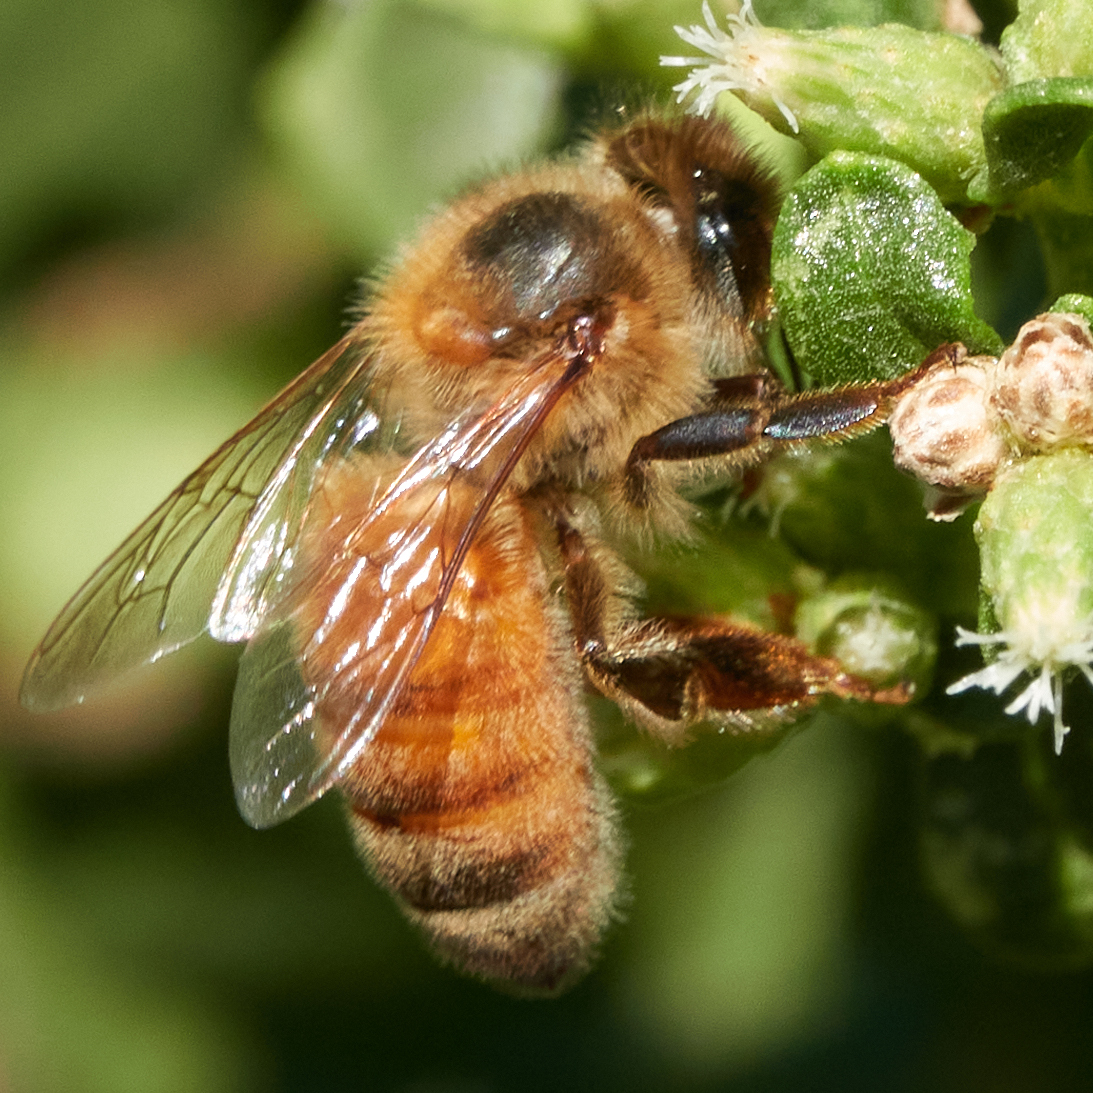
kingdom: Animalia
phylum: Arthropoda
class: Insecta
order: Hymenoptera
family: Apidae
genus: Apis
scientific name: Apis mellifera
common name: Honey bee
